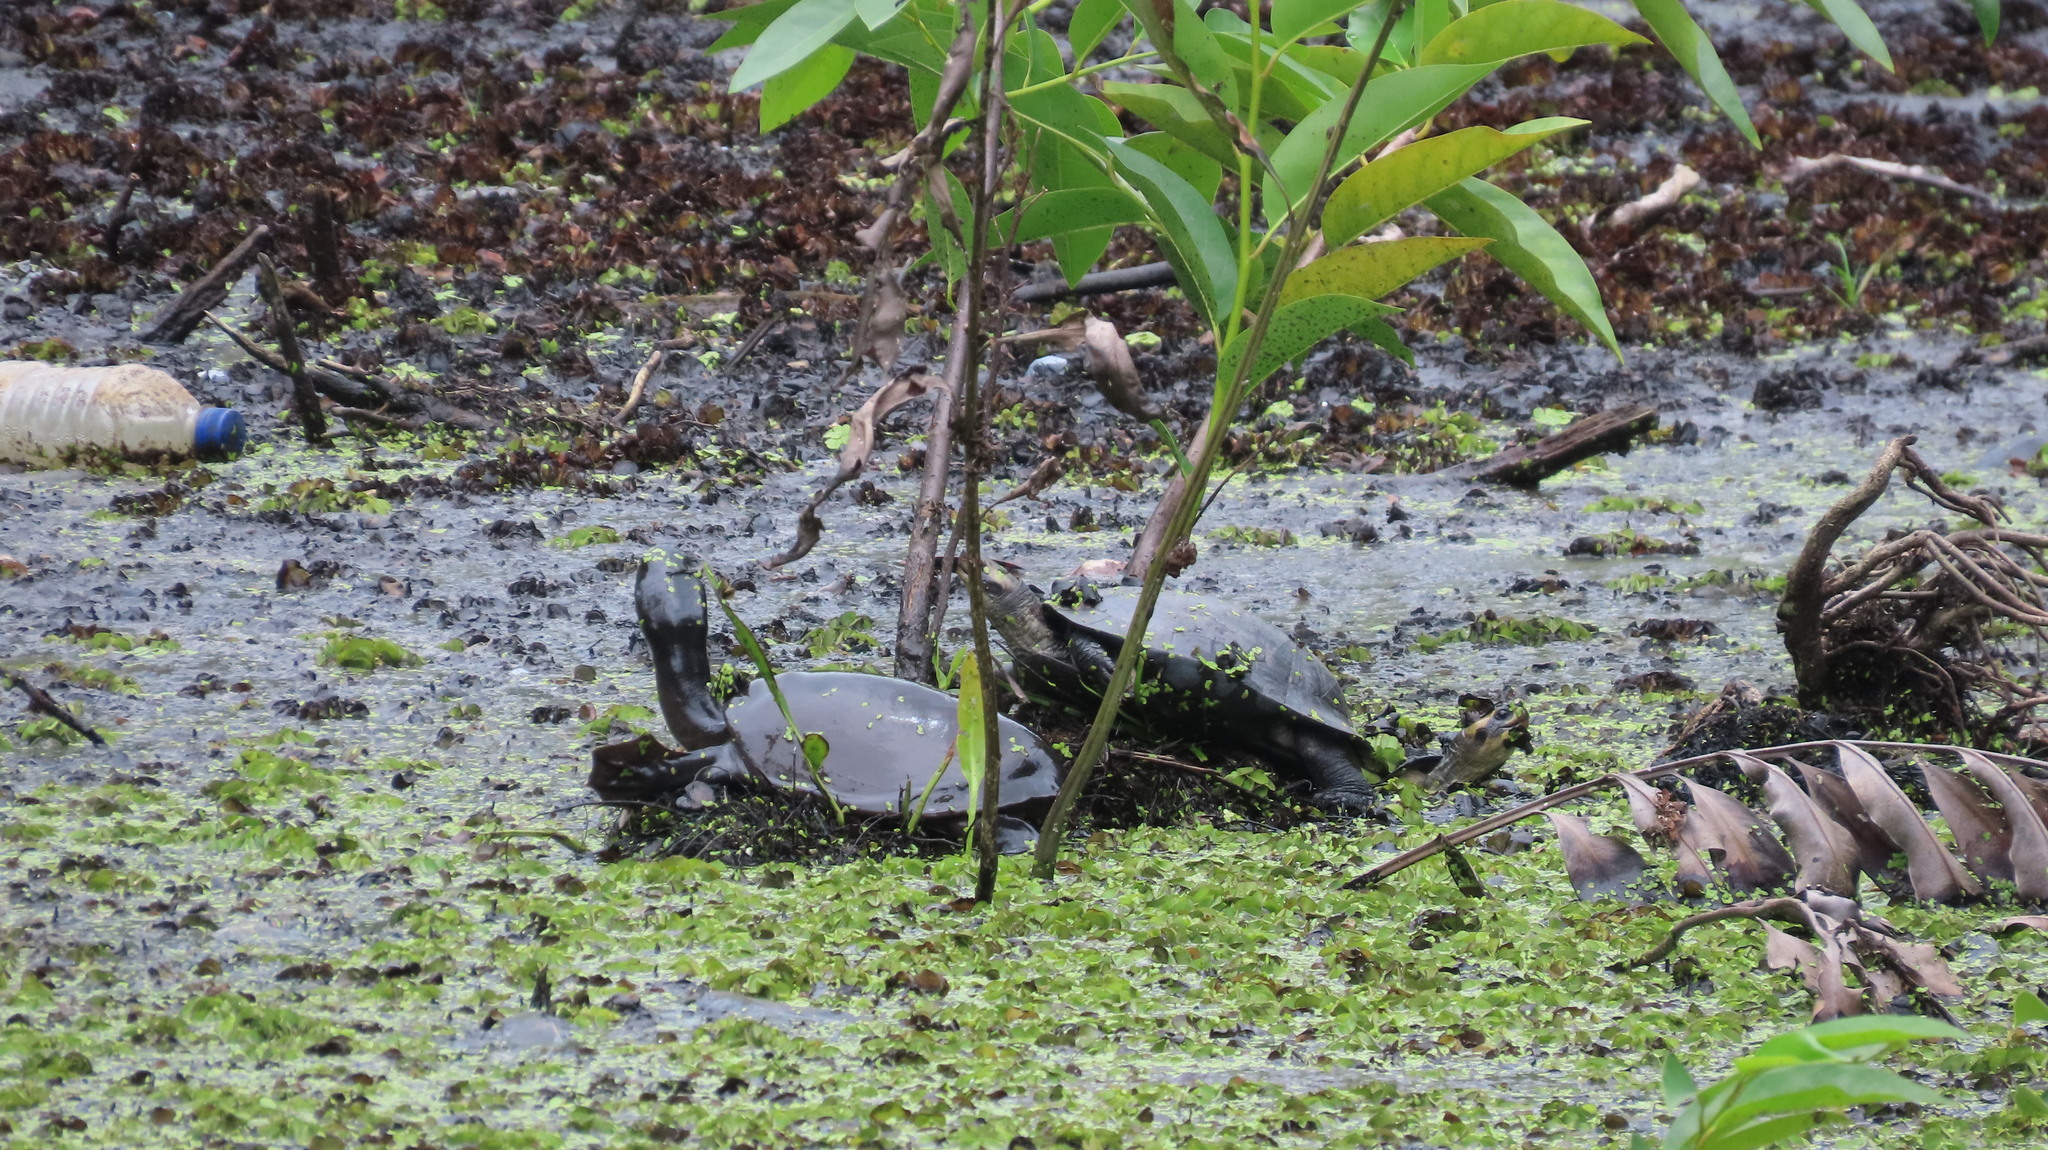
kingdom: Animalia
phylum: Chordata
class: Testudines
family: Trionychidae
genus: Lissemys
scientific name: Lissemys punctata
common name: Indian flap-shelled turtle
